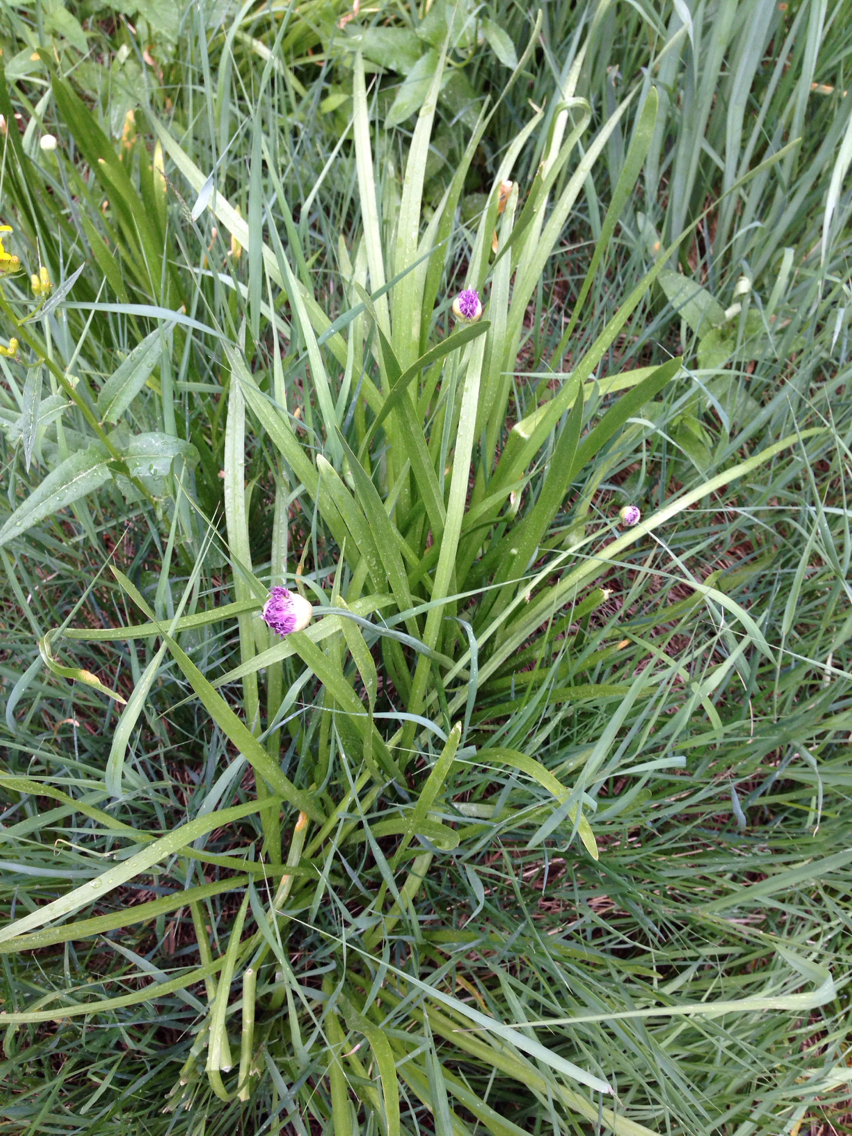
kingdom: Plantae
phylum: Tracheophyta
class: Liliopsida
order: Asparagales
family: Amaryllidaceae
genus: Allium
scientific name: Allium validum
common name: Pacific mountain onion
